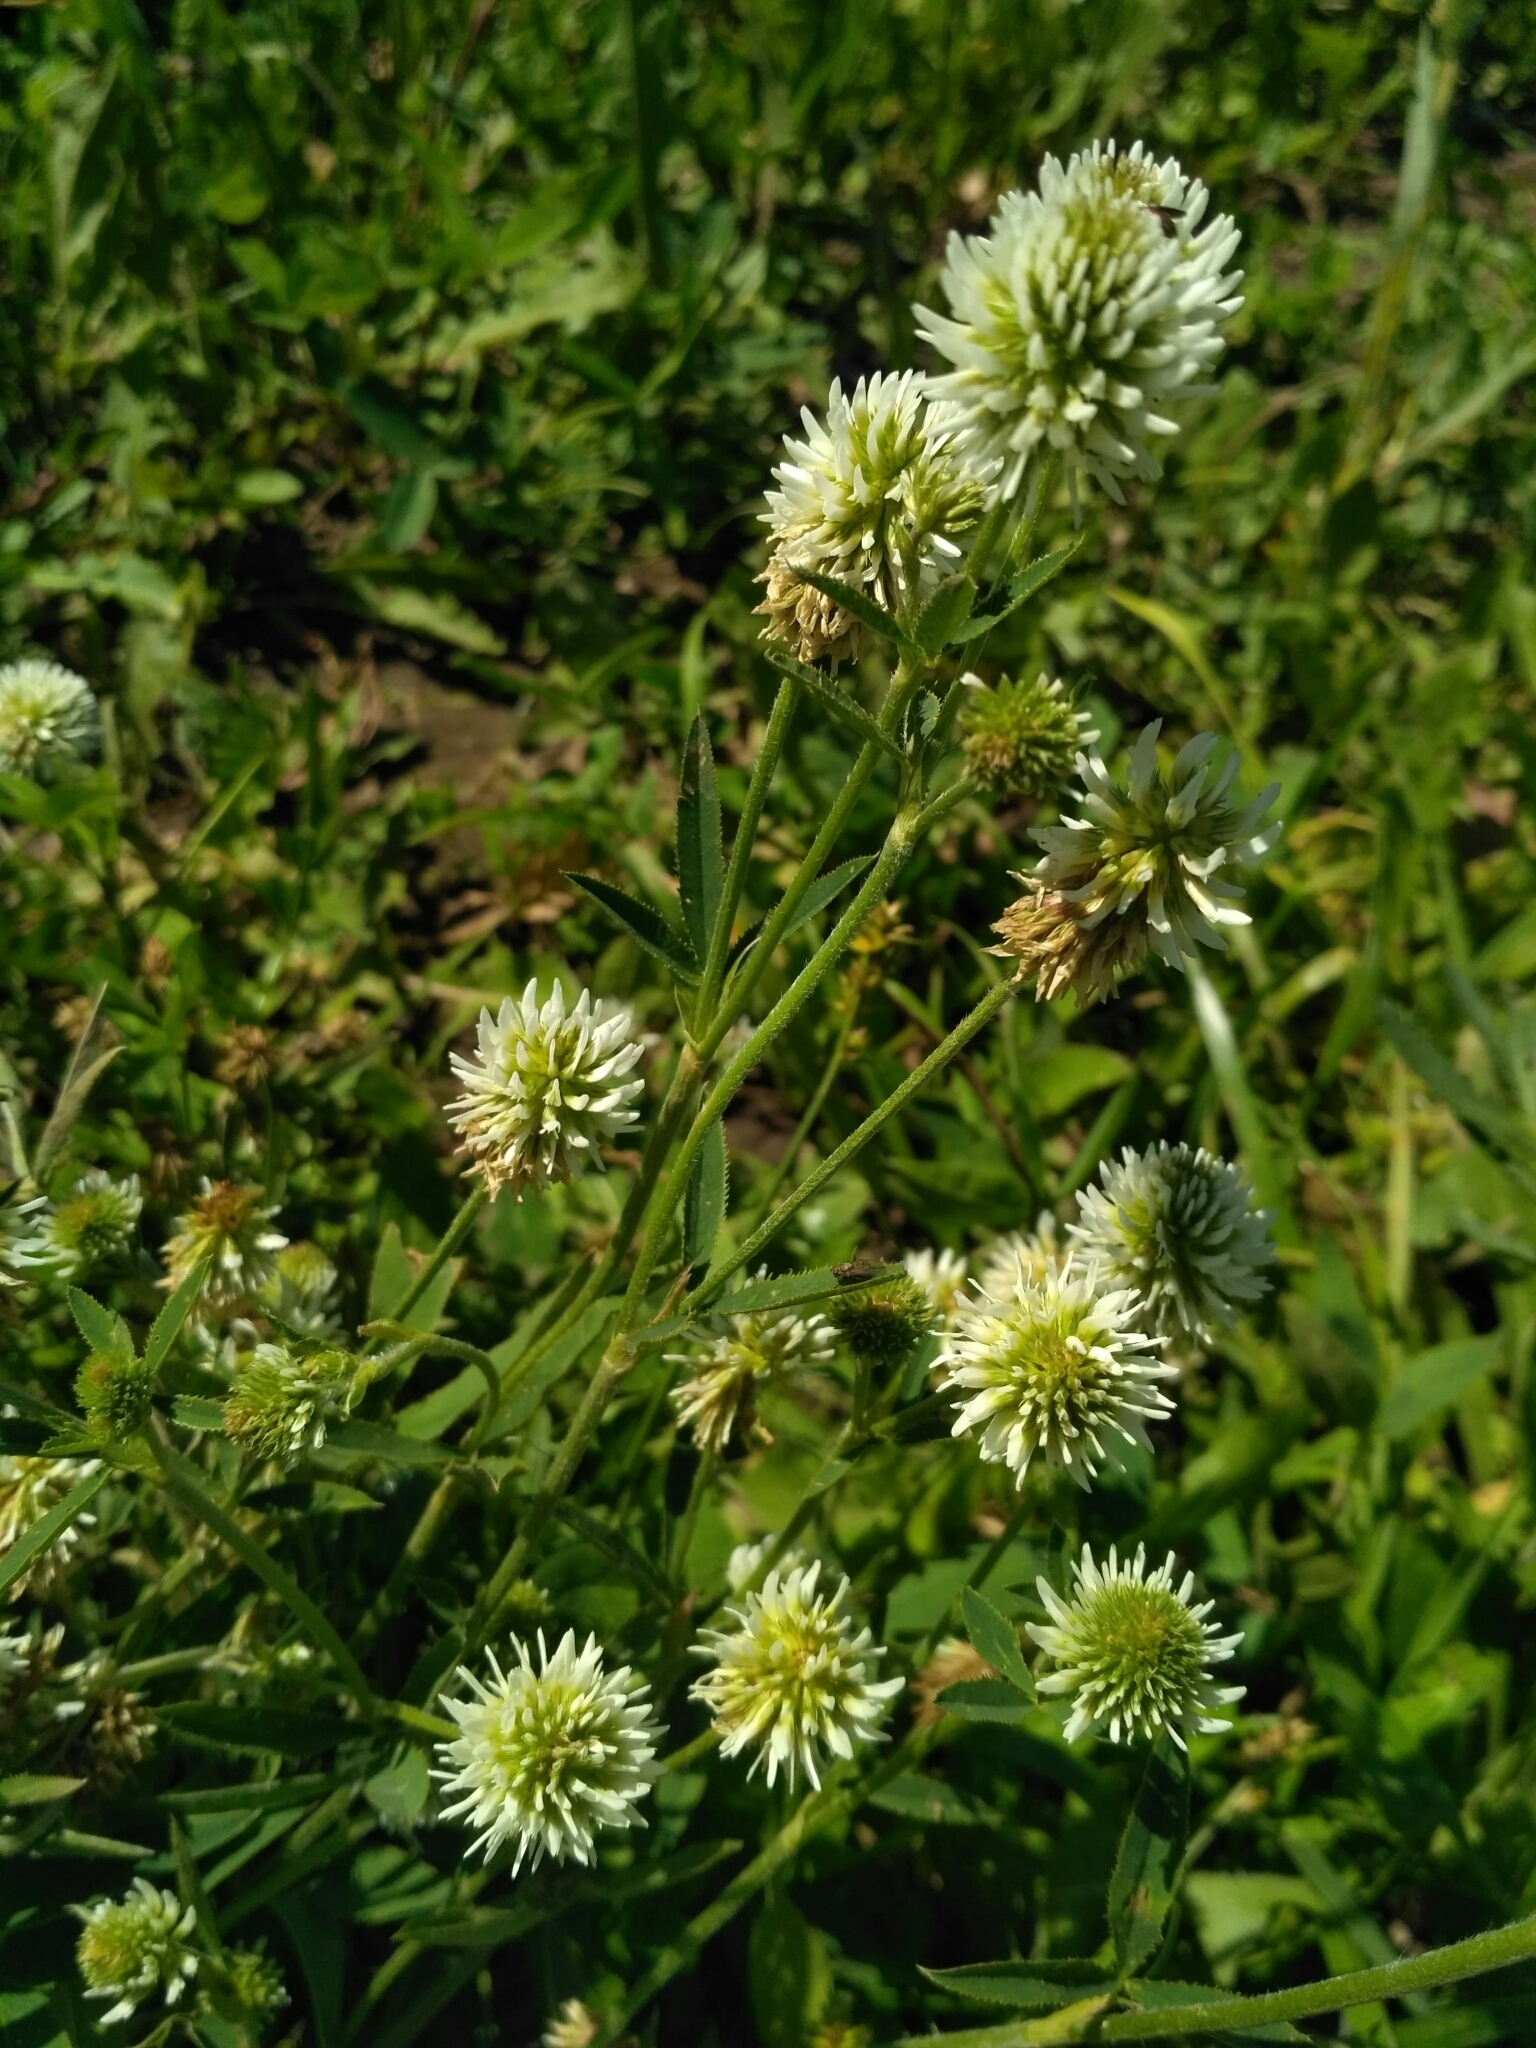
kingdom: Plantae
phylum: Tracheophyta
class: Magnoliopsida
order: Fabales
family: Fabaceae
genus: Trifolium
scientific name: Trifolium montanum
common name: Mountain clover
